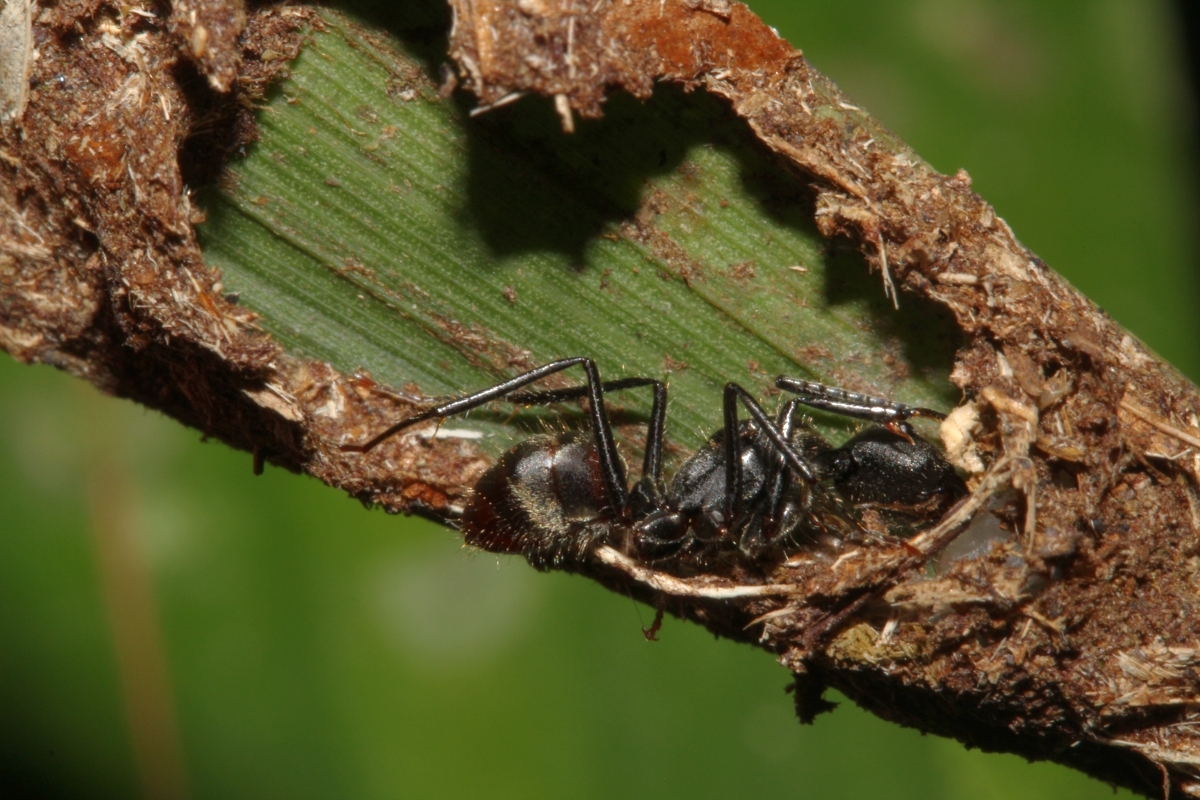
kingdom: Animalia
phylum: Arthropoda
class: Insecta
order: Hymenoptera
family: Formicidae
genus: Dendromyrmex
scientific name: Dendromyrmex nidulans
